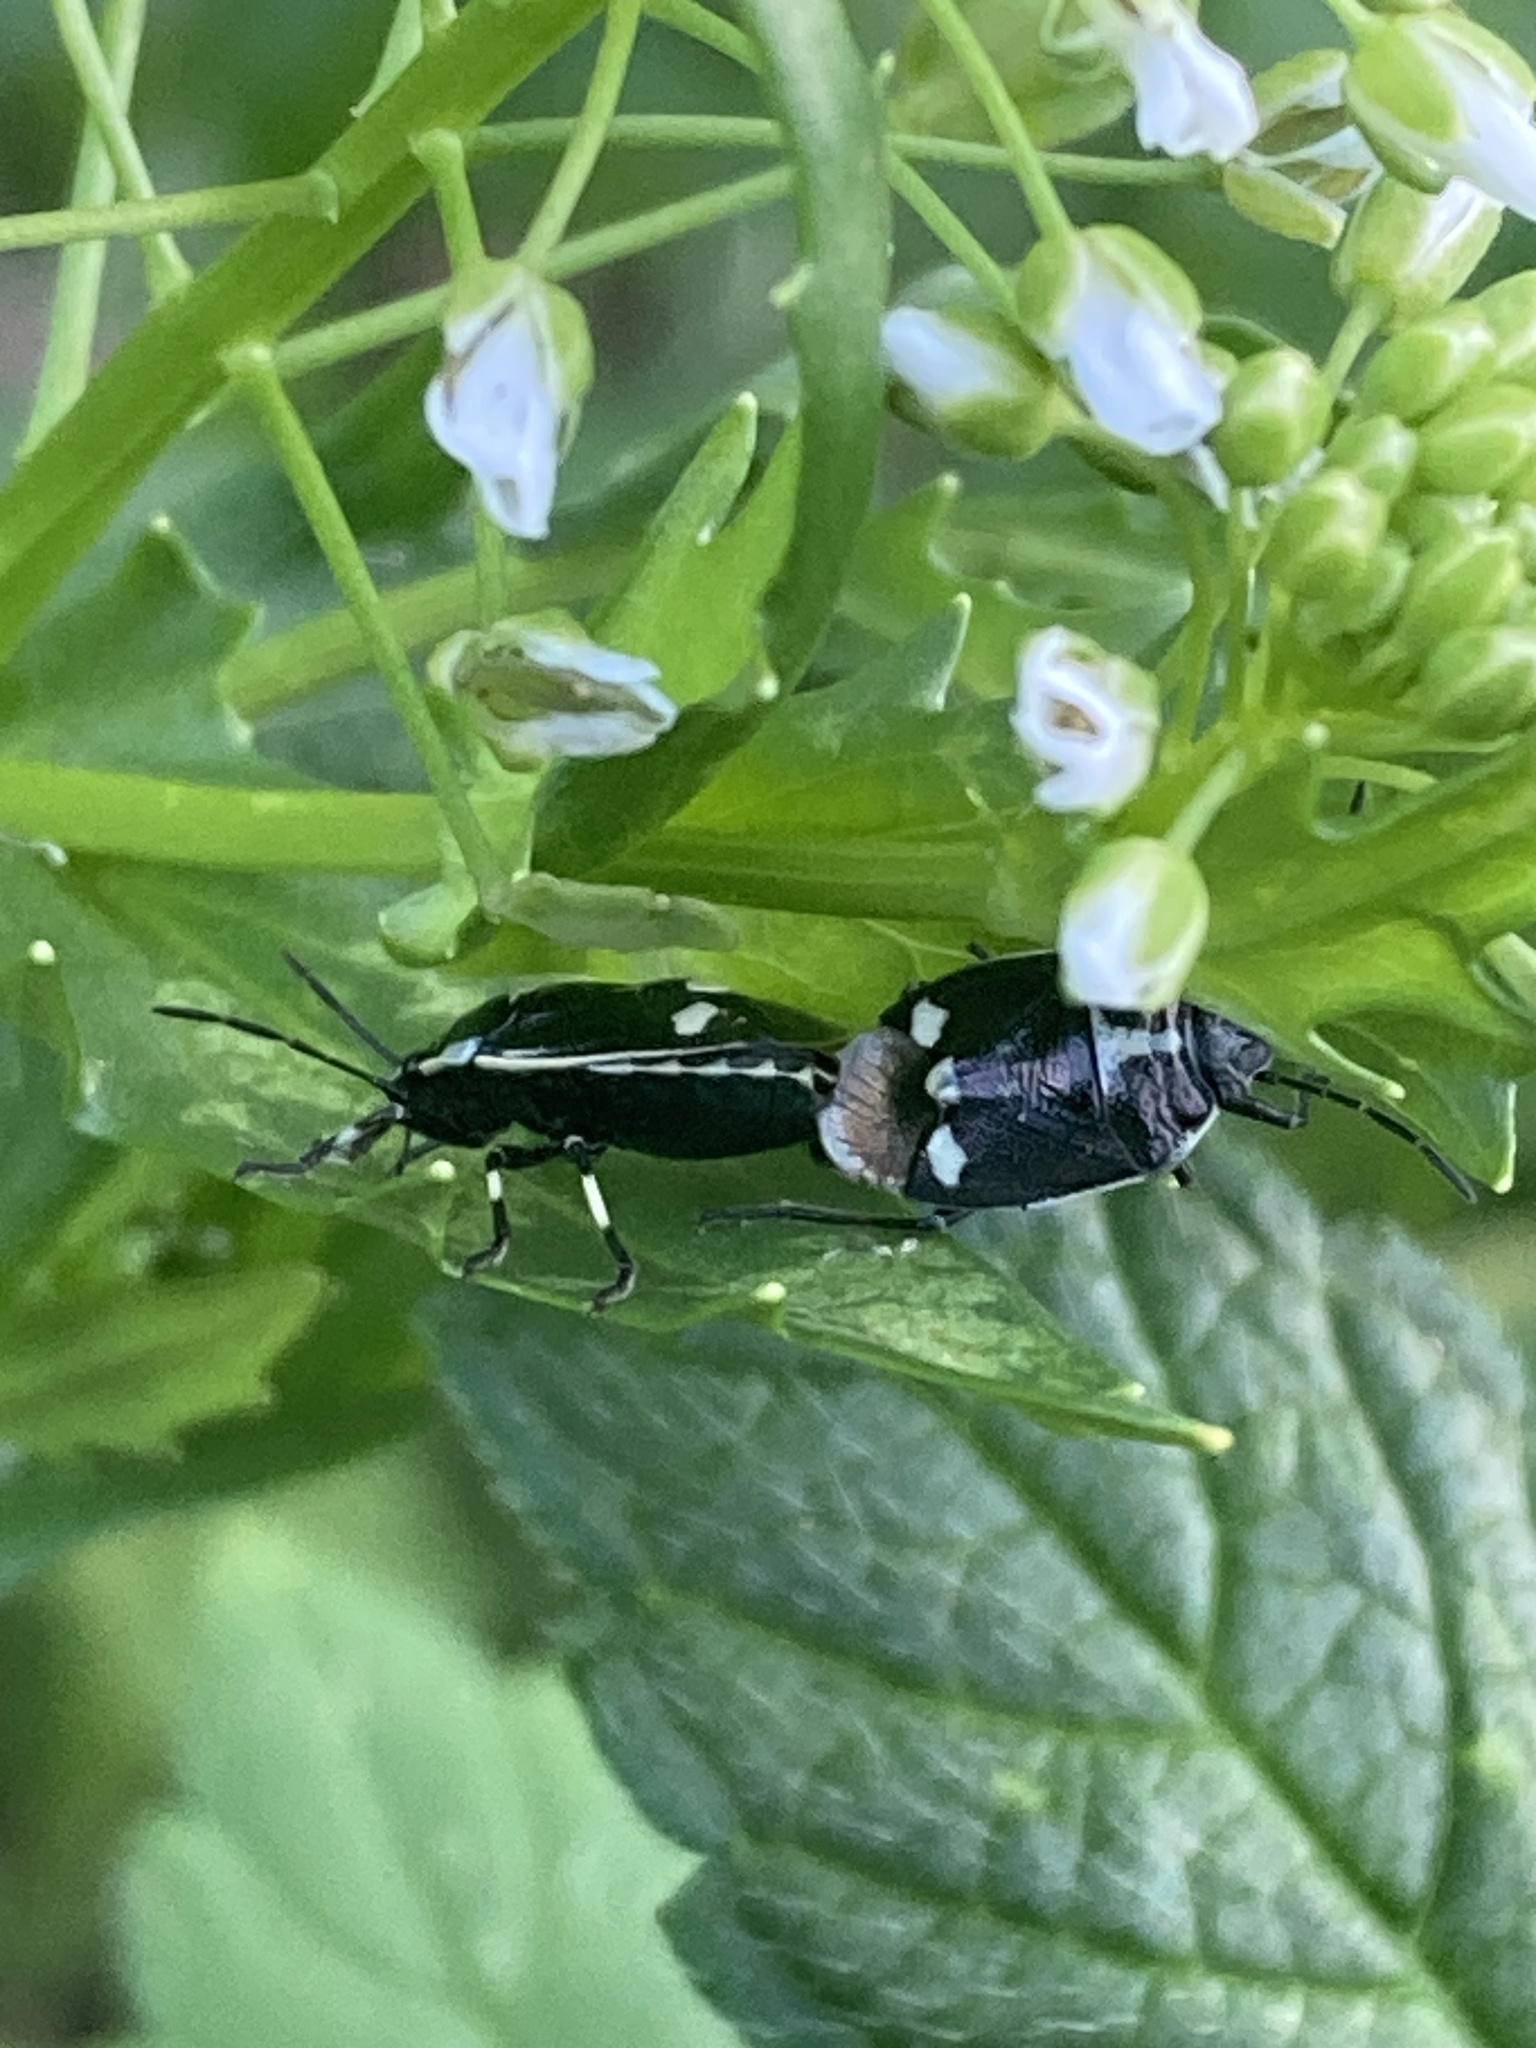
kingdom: Animalia
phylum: Arthropoda
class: Insecta
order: Hemiptera
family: Pentatomidae
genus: Eurydema
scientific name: Eurydema oleracea
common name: Cabbage bug
